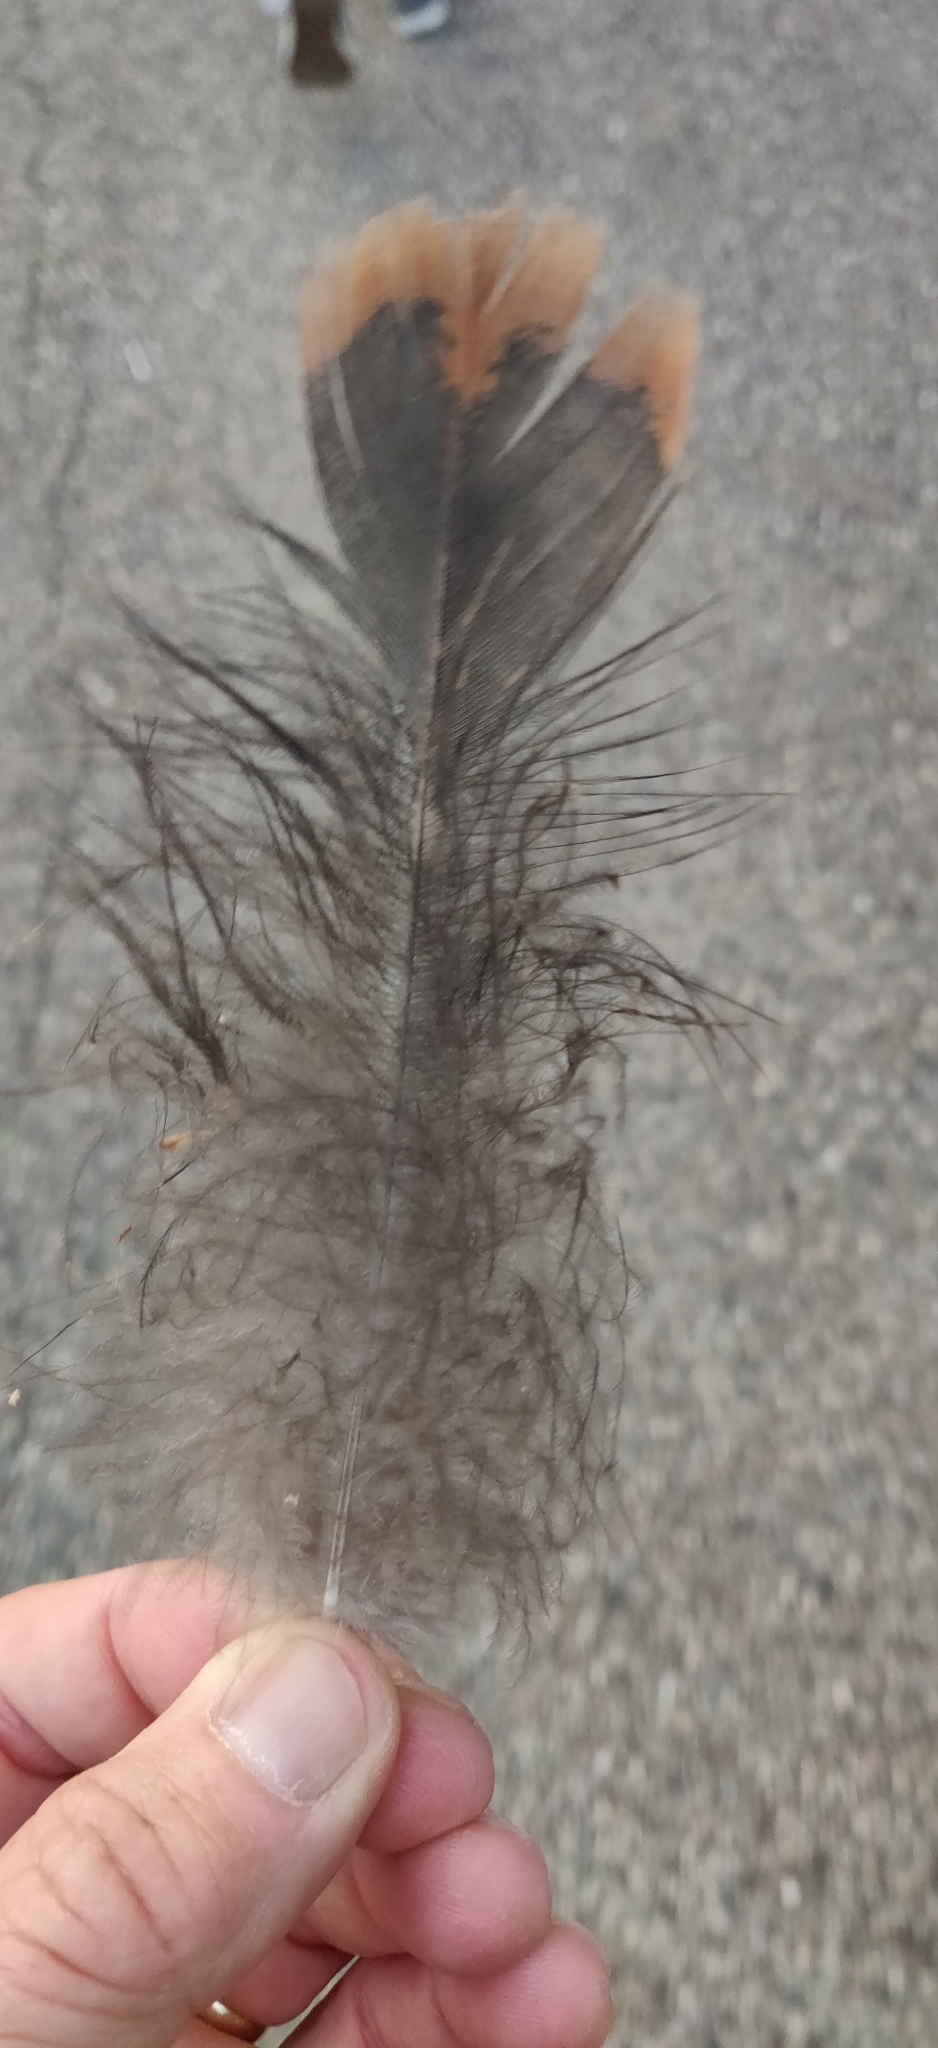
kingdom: Animalia
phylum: Chordata
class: Aves
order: Galliformes
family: Phasianidae
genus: Meleagris
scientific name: Meleagris gallopavo
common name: Wild turkey
